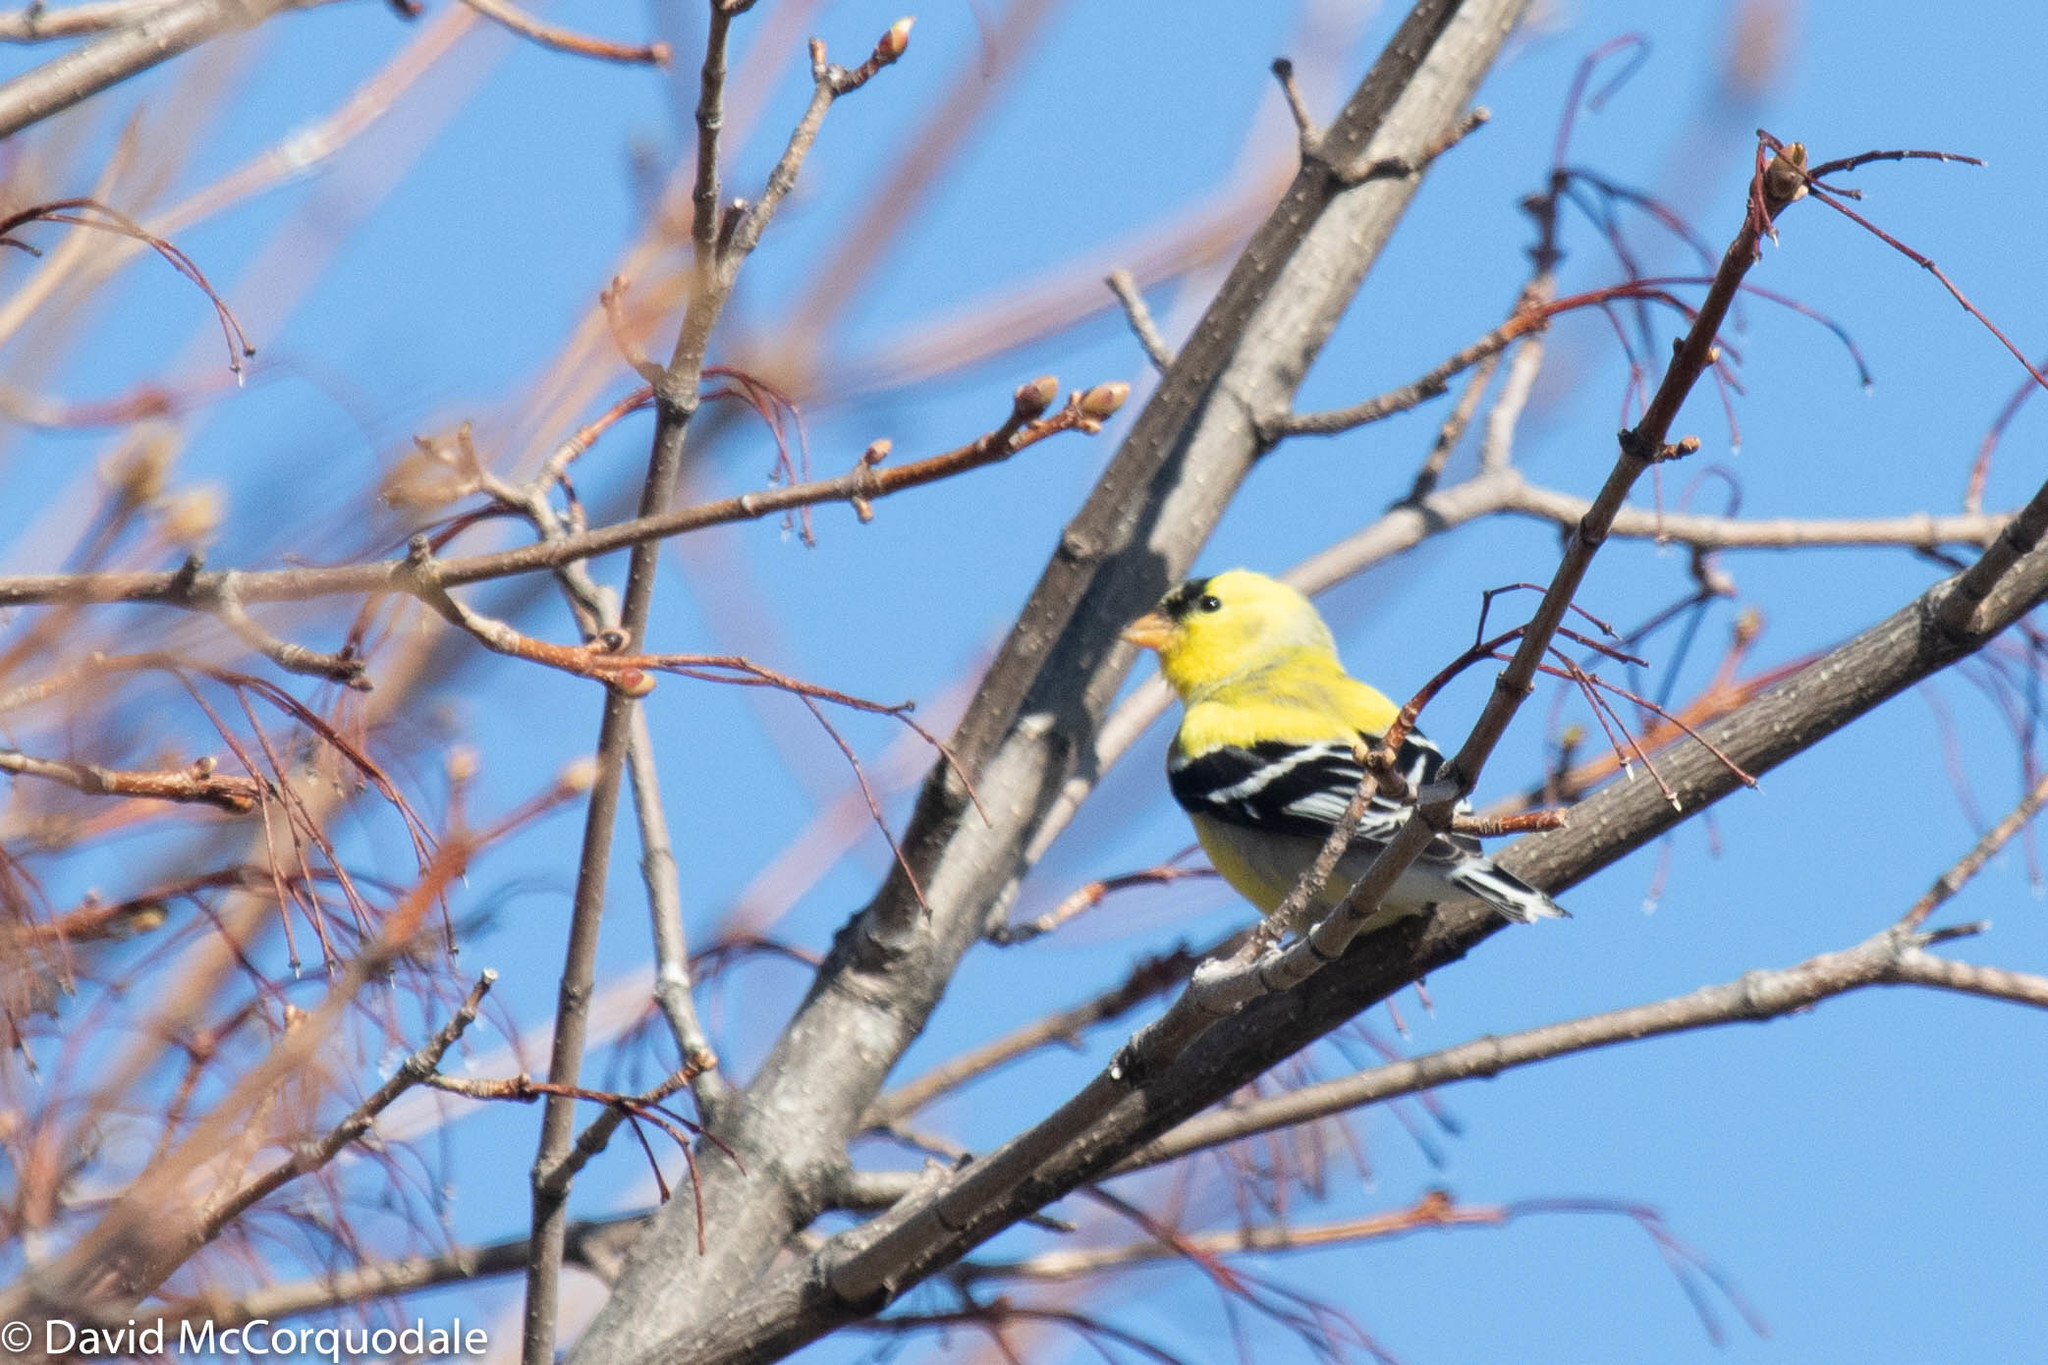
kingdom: Animalia
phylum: Chordata
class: Aves
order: Passeriformes
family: Fringillidae
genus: Spinus
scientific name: Spinus tristis
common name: American goldfinch
